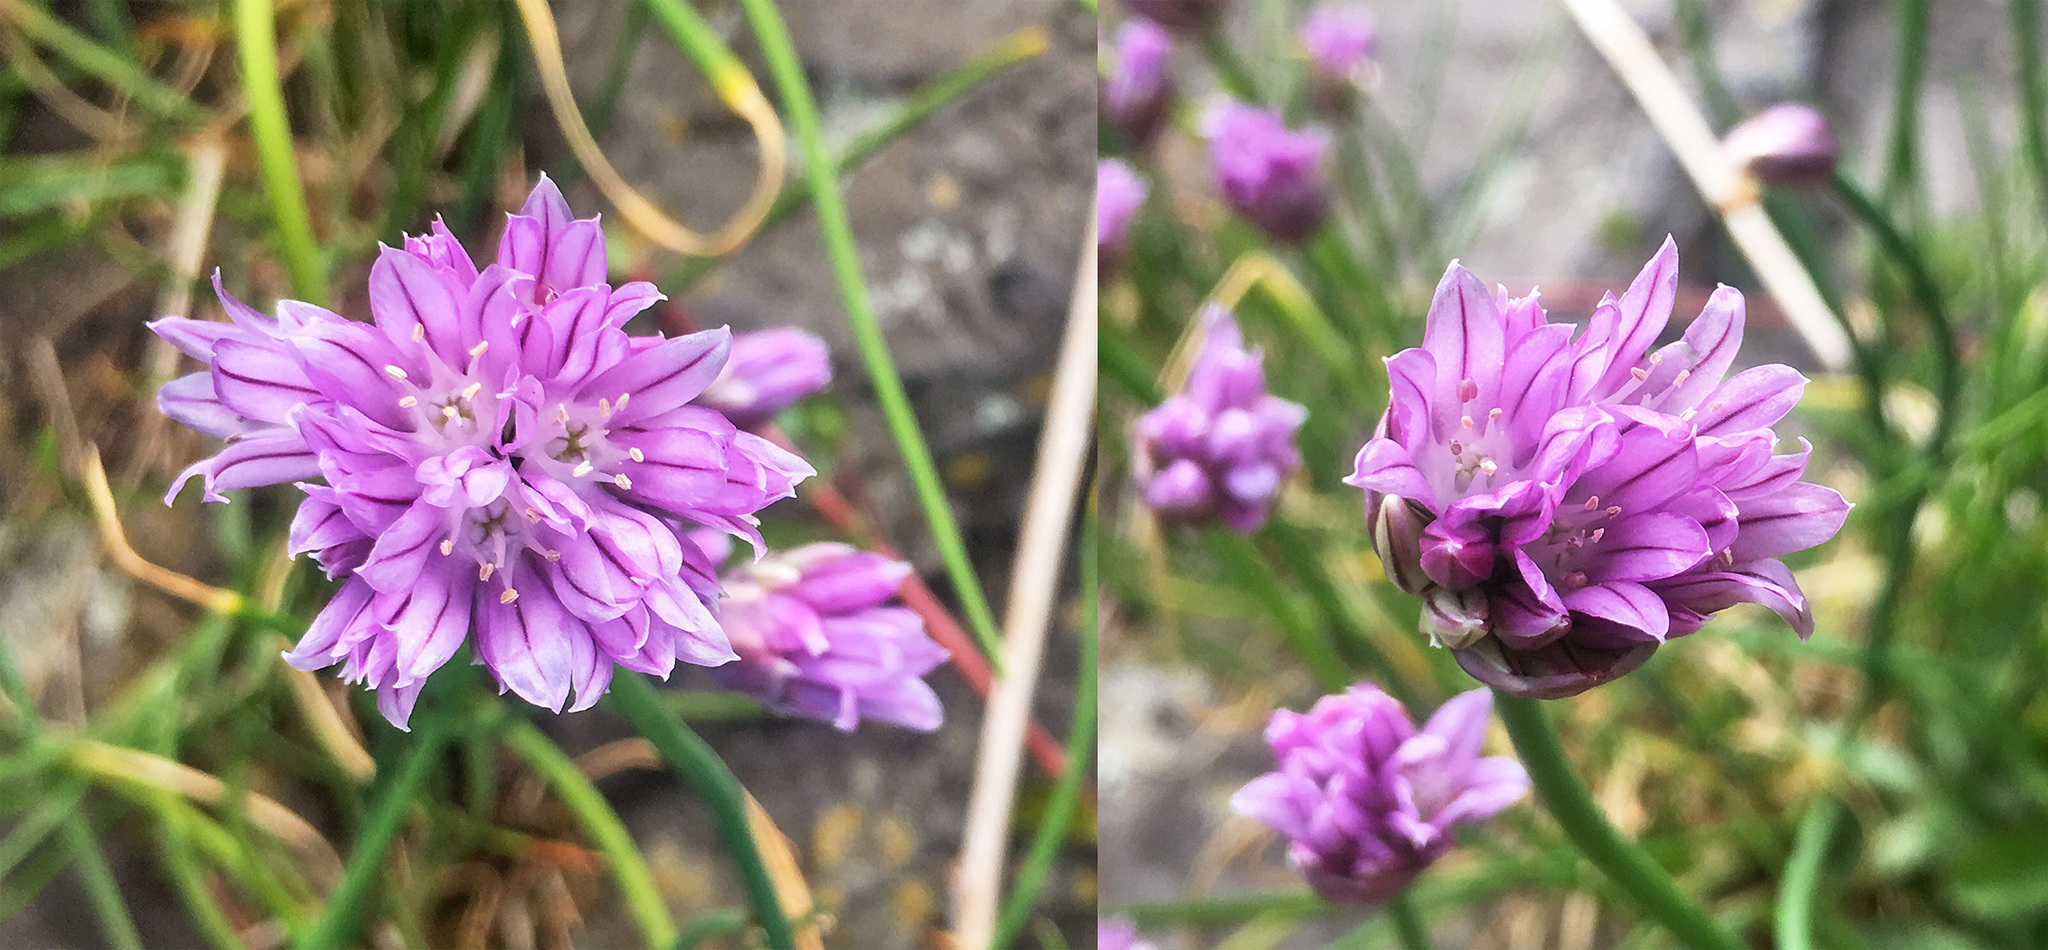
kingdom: Plantae
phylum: Tracheophyta
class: Liliopsida
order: Asparagales
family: Amaryllidaceae
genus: Allium
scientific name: Allium schoenoprasum
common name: Chives
